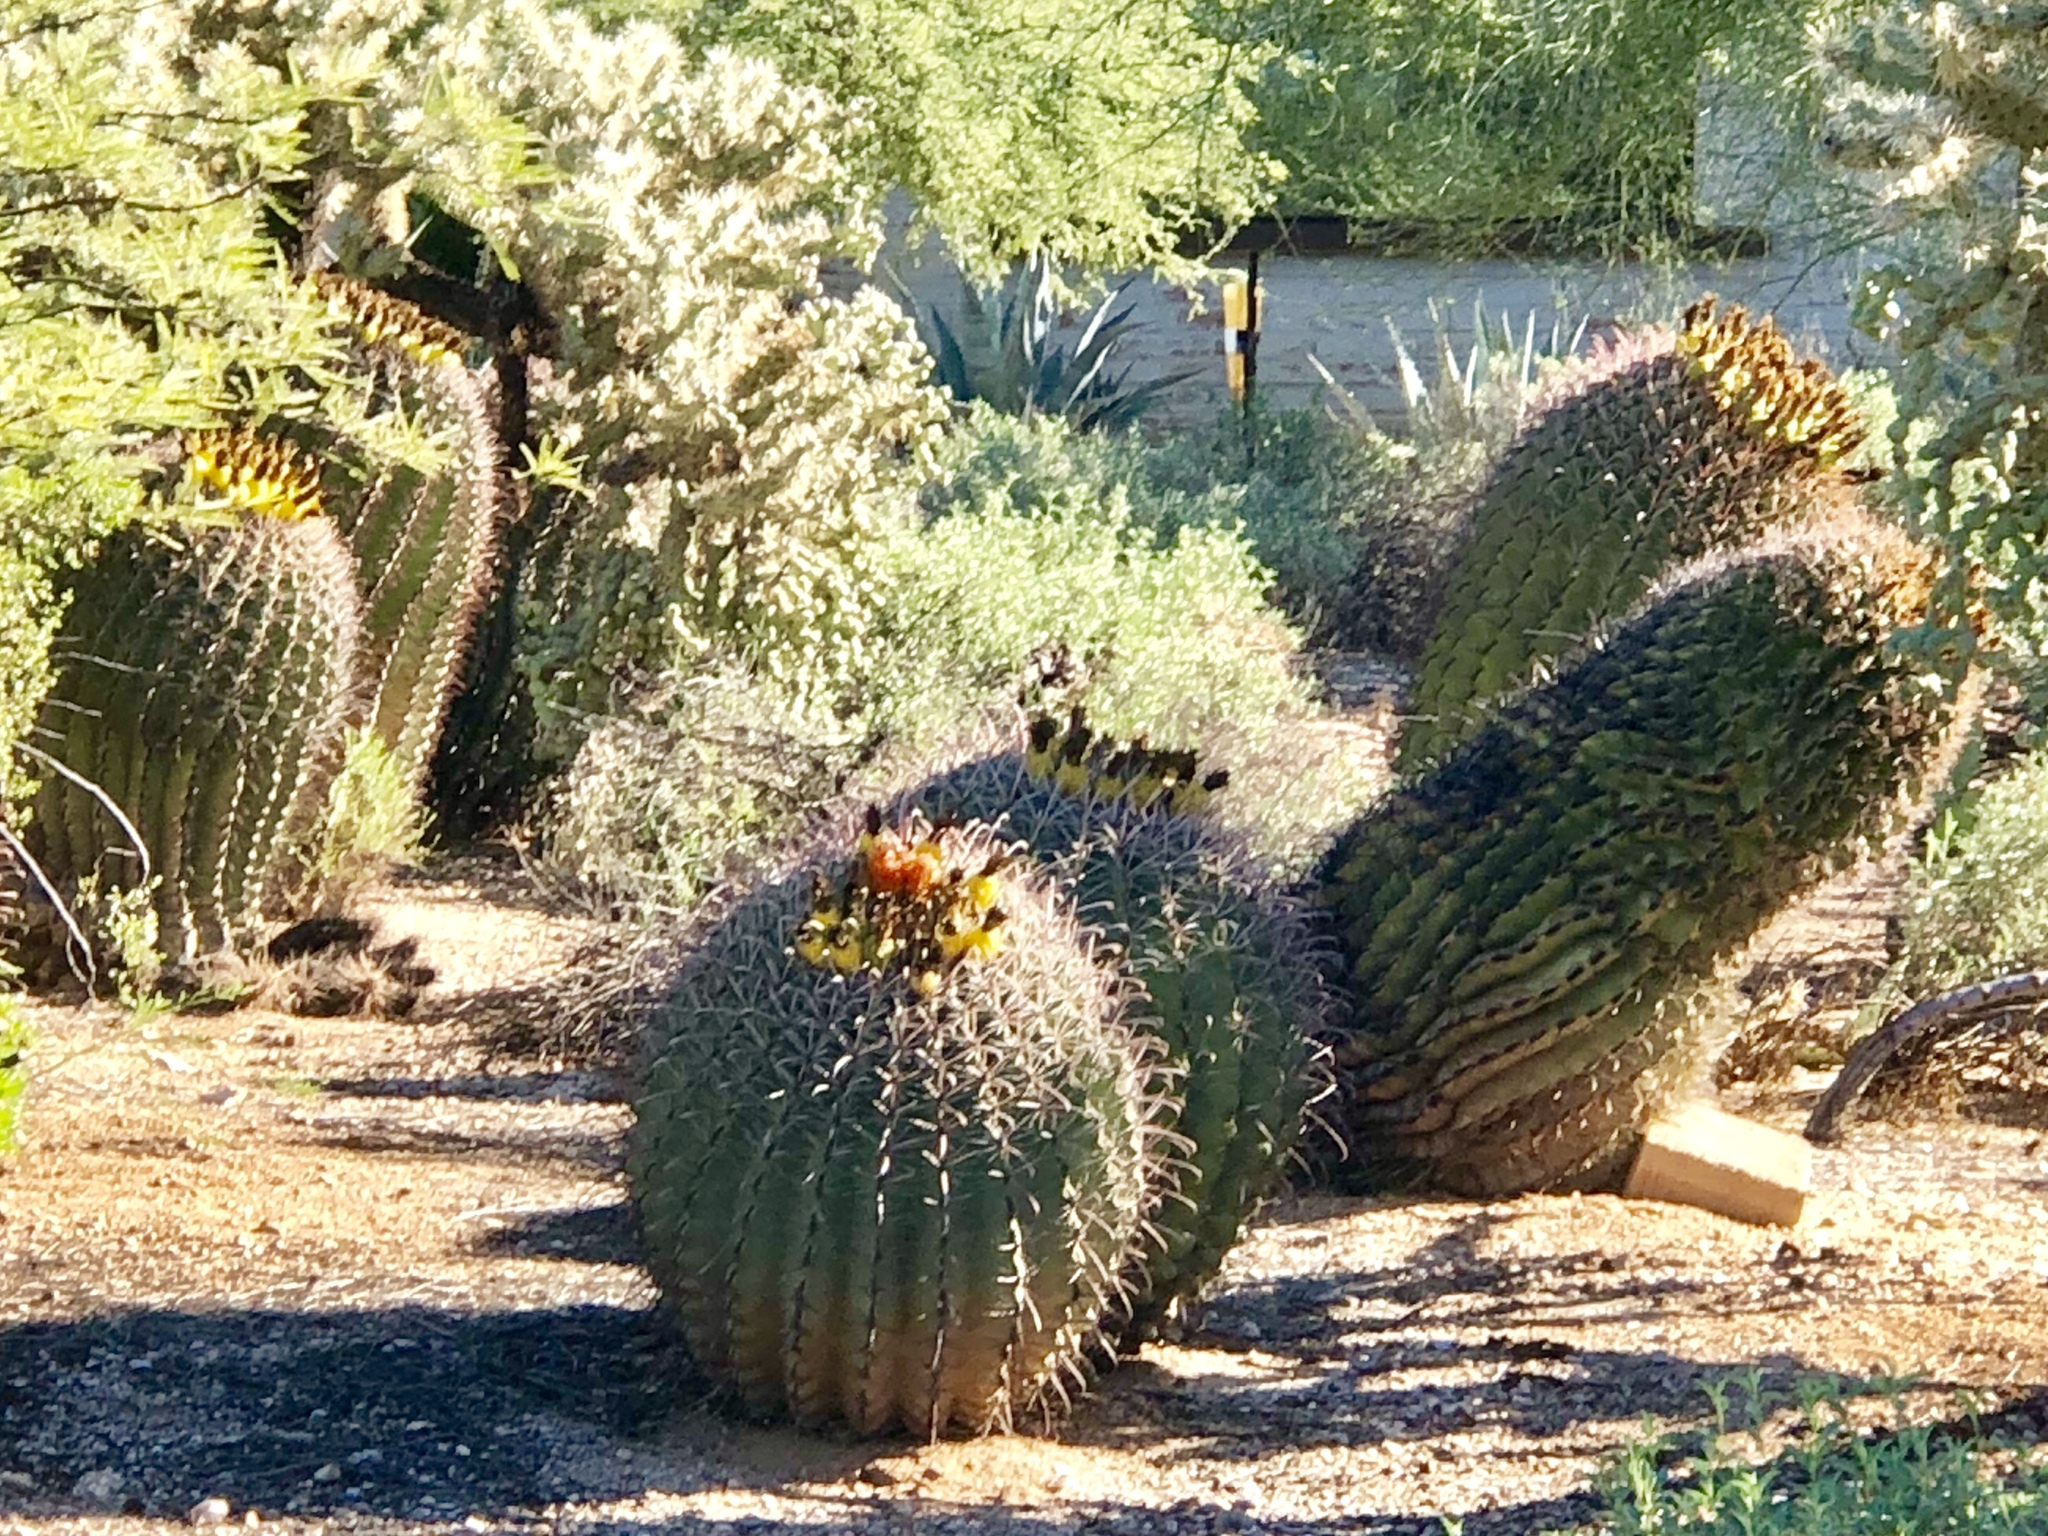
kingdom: Plantae
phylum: Tracheophyta
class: Magnoliopsida
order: Caryophyllales
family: Cactaceae
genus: Ferocactus
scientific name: Ferocactus wislizeni
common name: Candy barrel cactus
